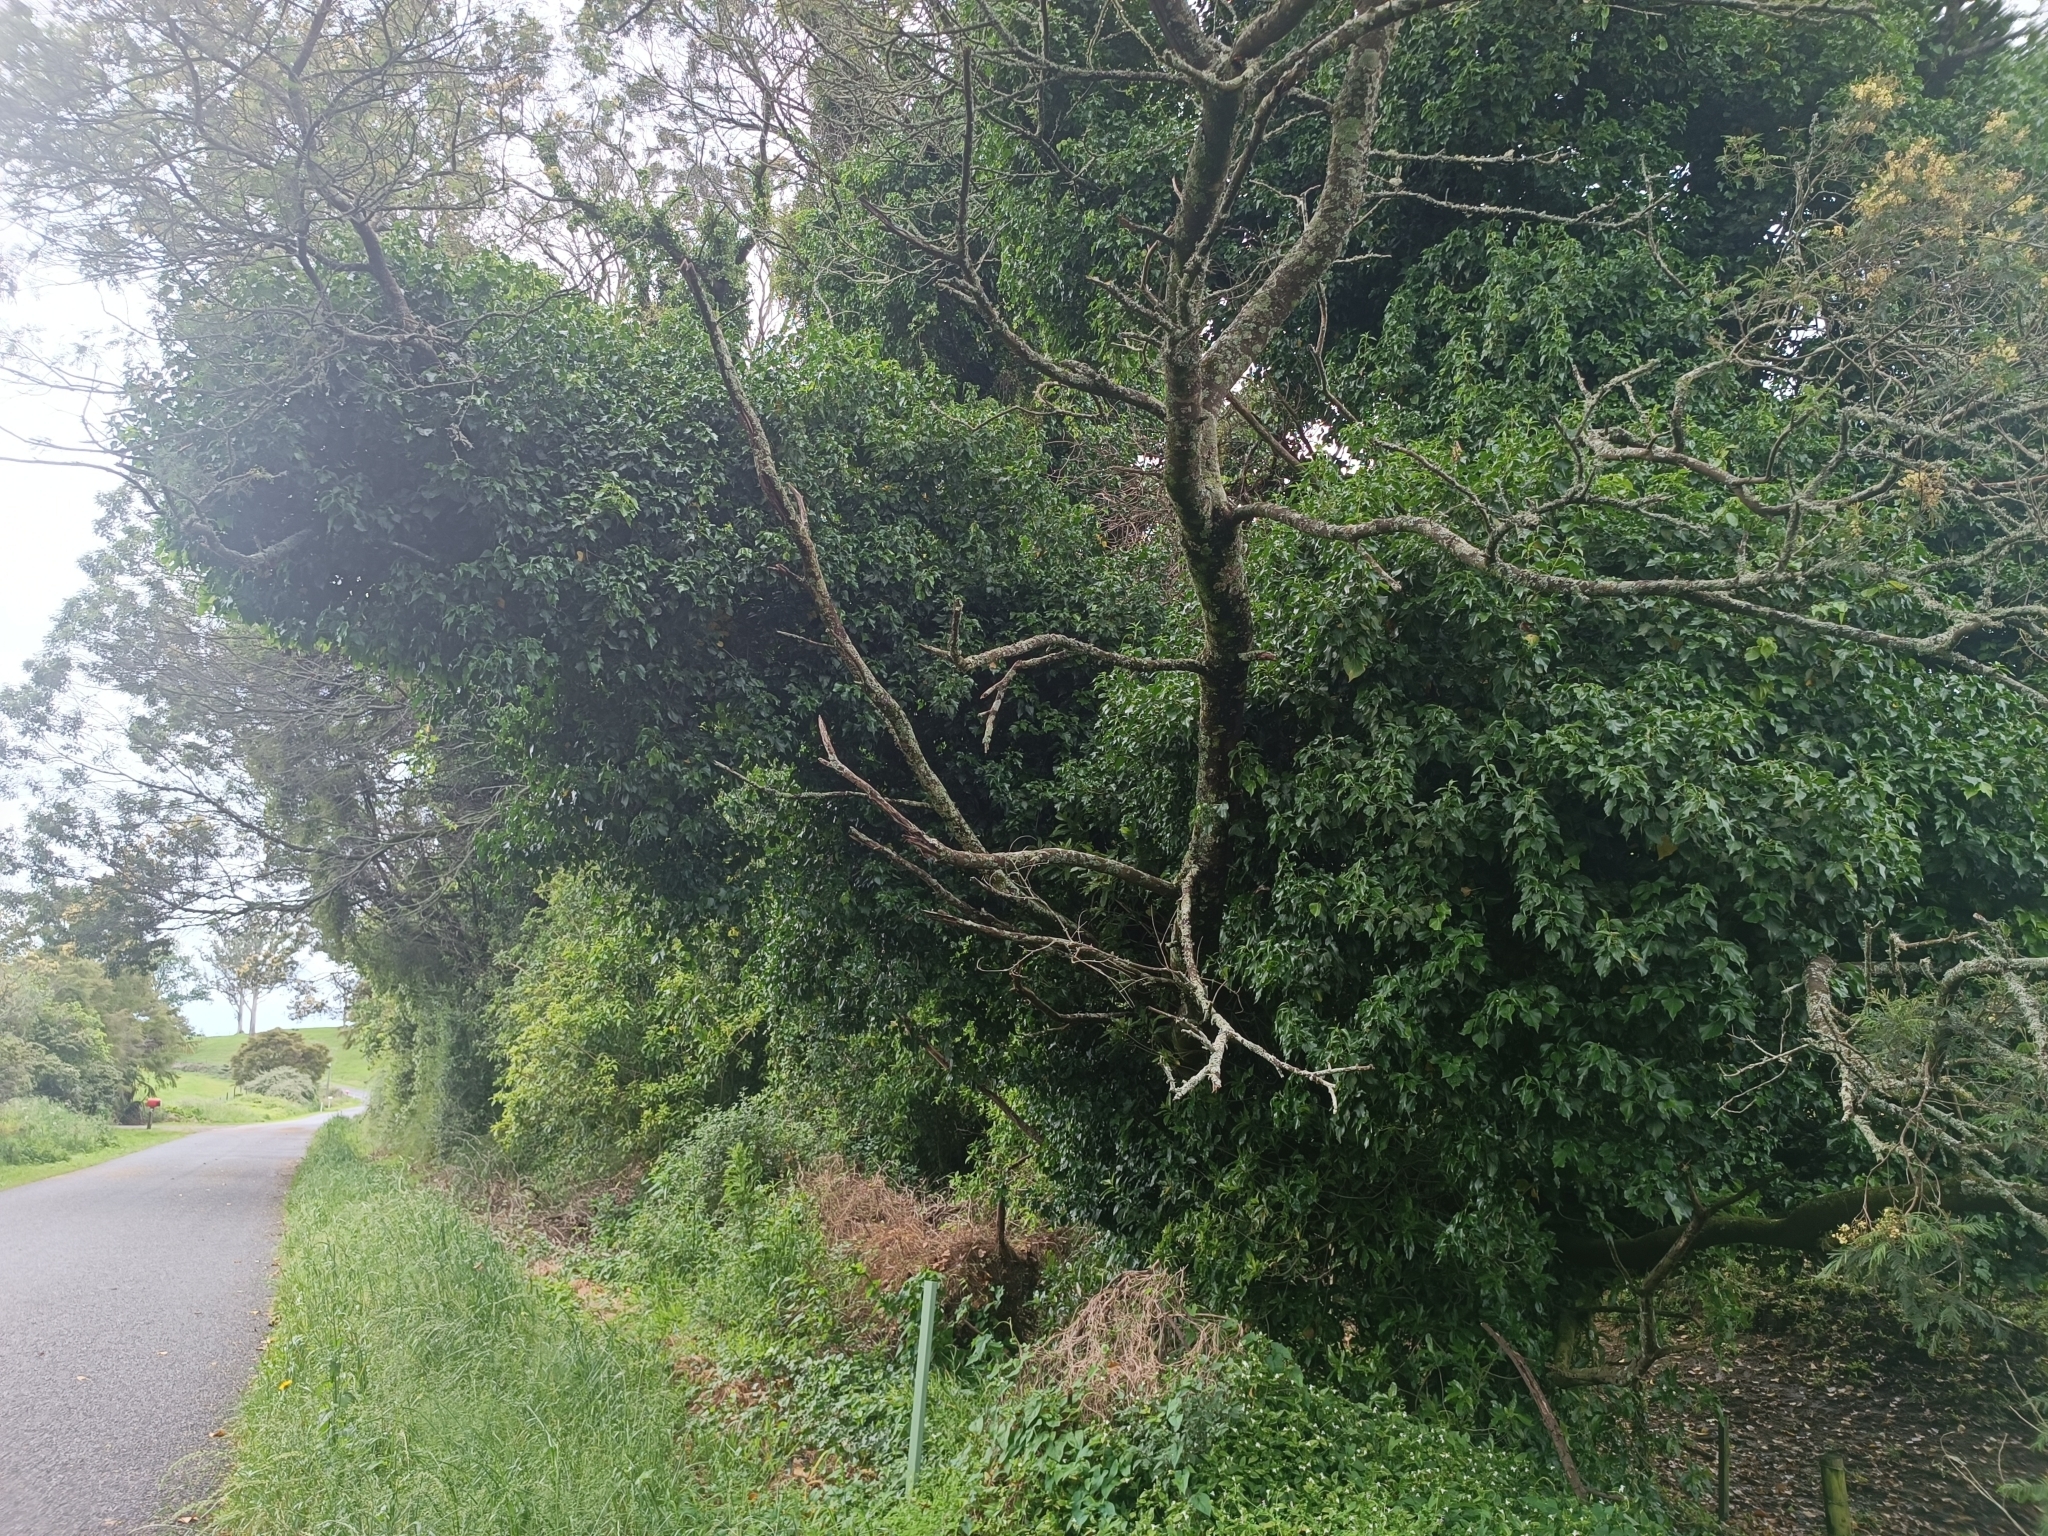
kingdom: Plantae
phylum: Tracheophyta
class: Magnoliopsida
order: Apiales
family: Araliaceae
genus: Hedera
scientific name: Hedera helix
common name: Ivy
